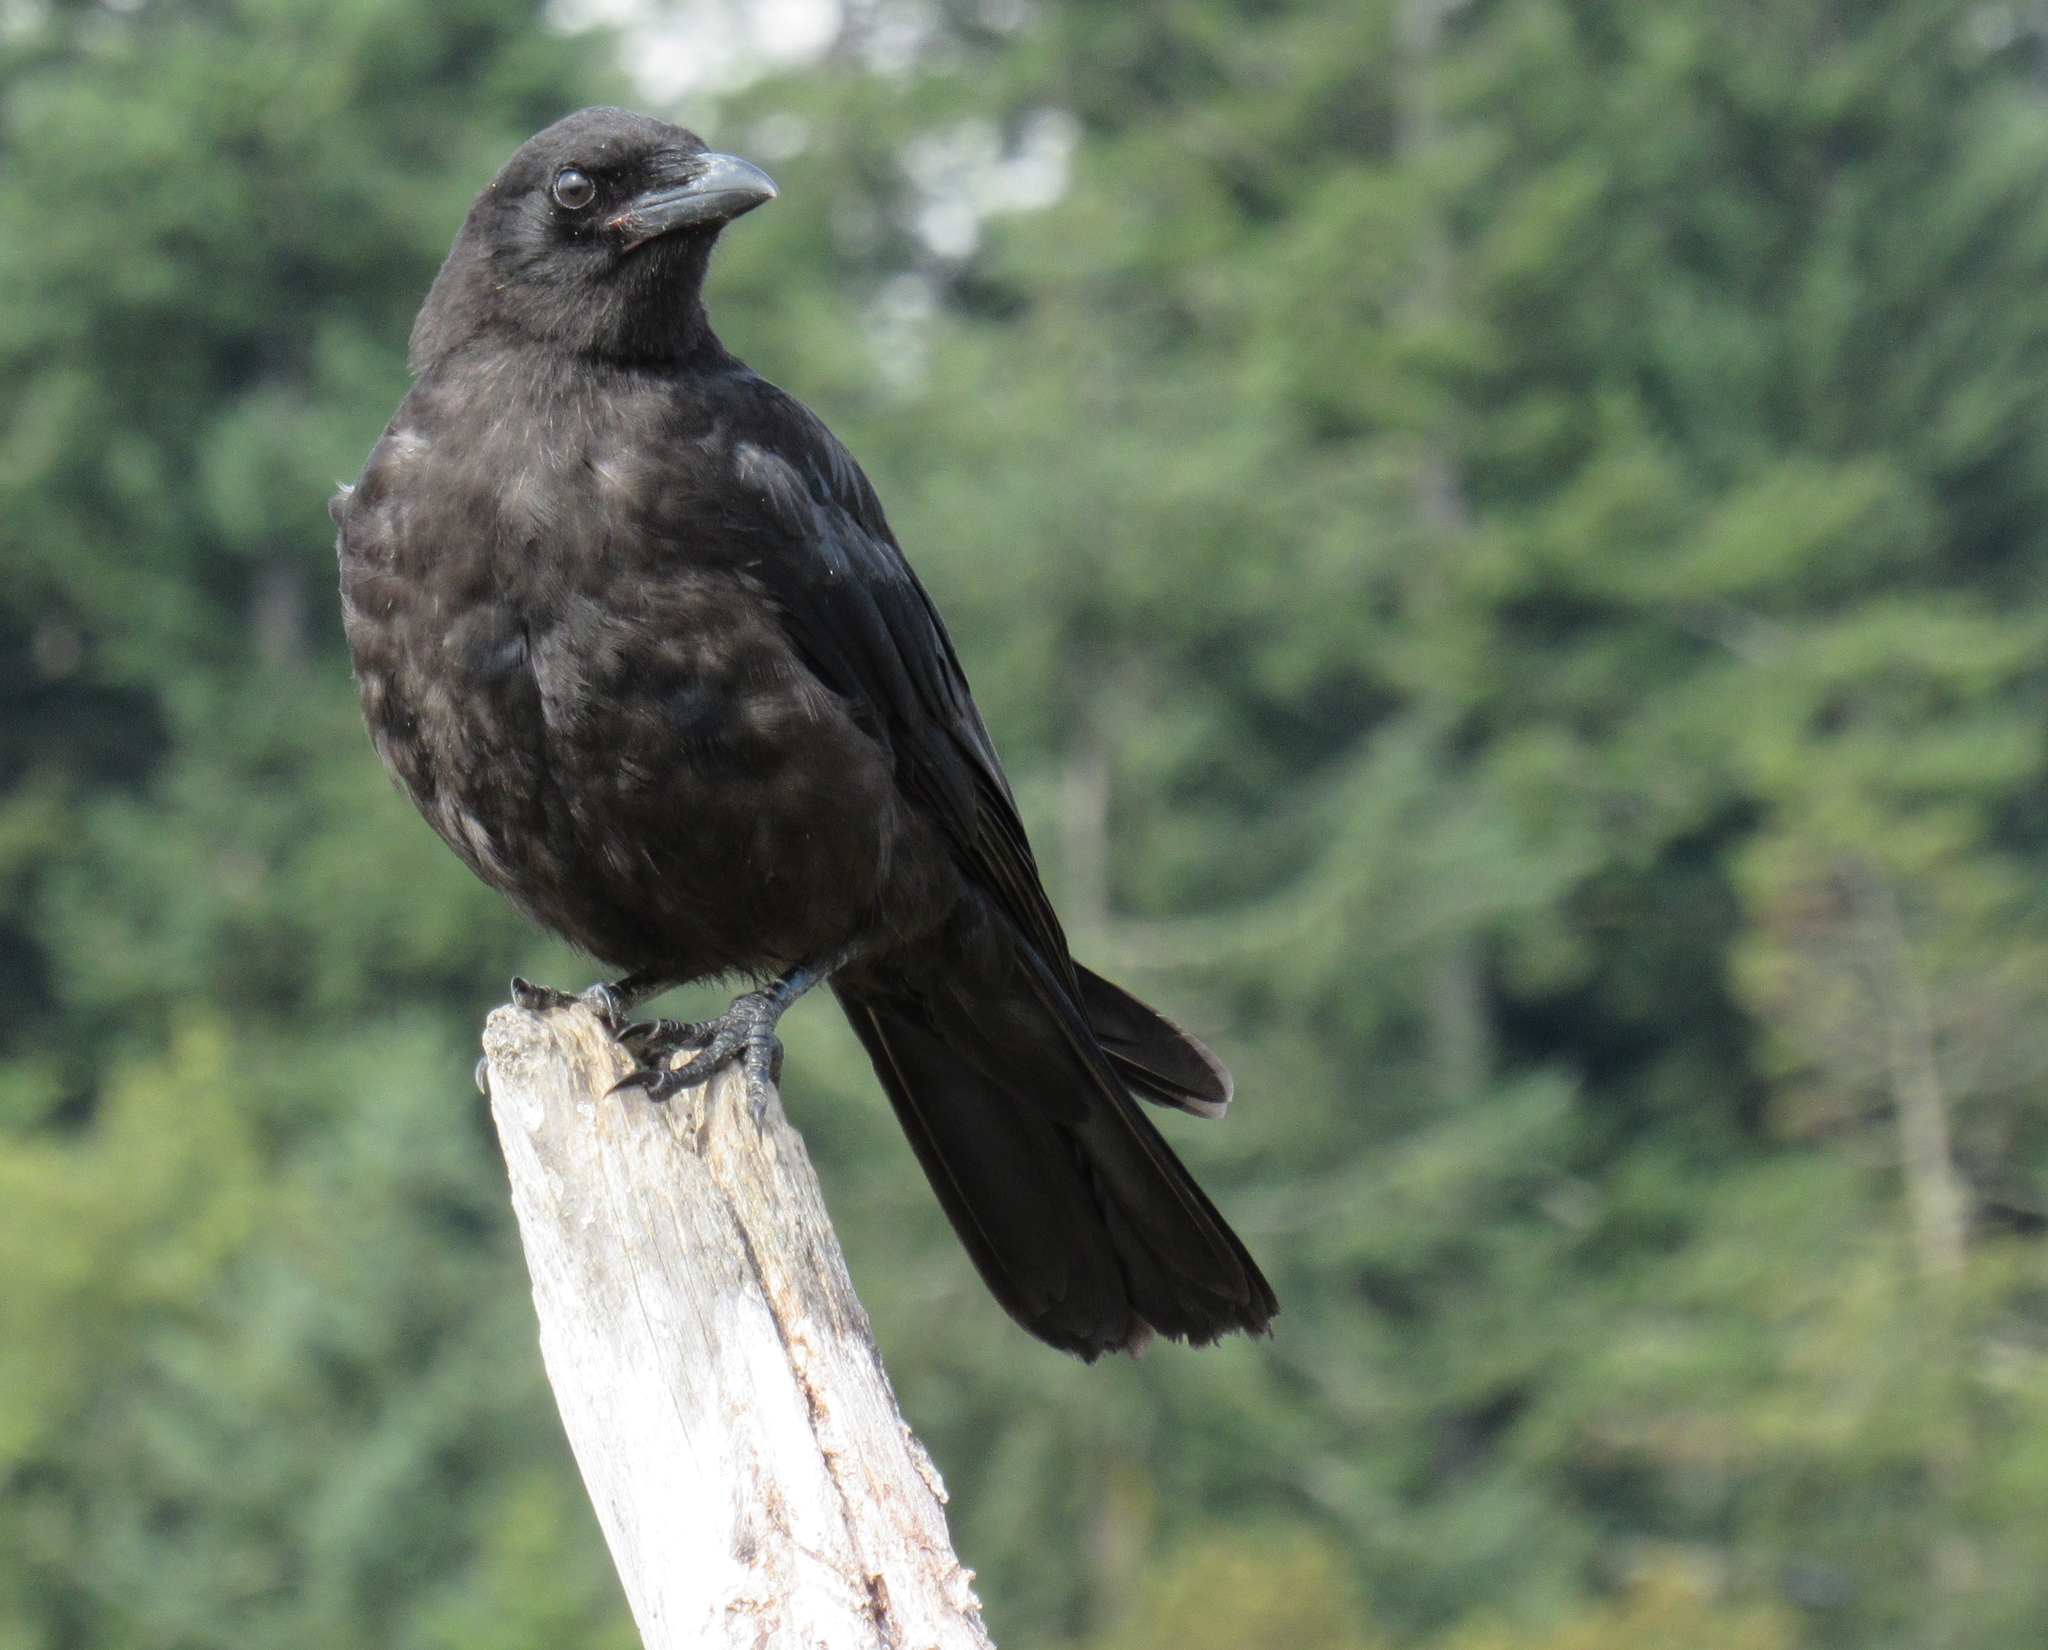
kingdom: Animalia
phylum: Chordata
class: Aves
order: Passeriformes
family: Corvidae
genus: Corvus
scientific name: Corvus brachyrhynchos
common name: American crow
